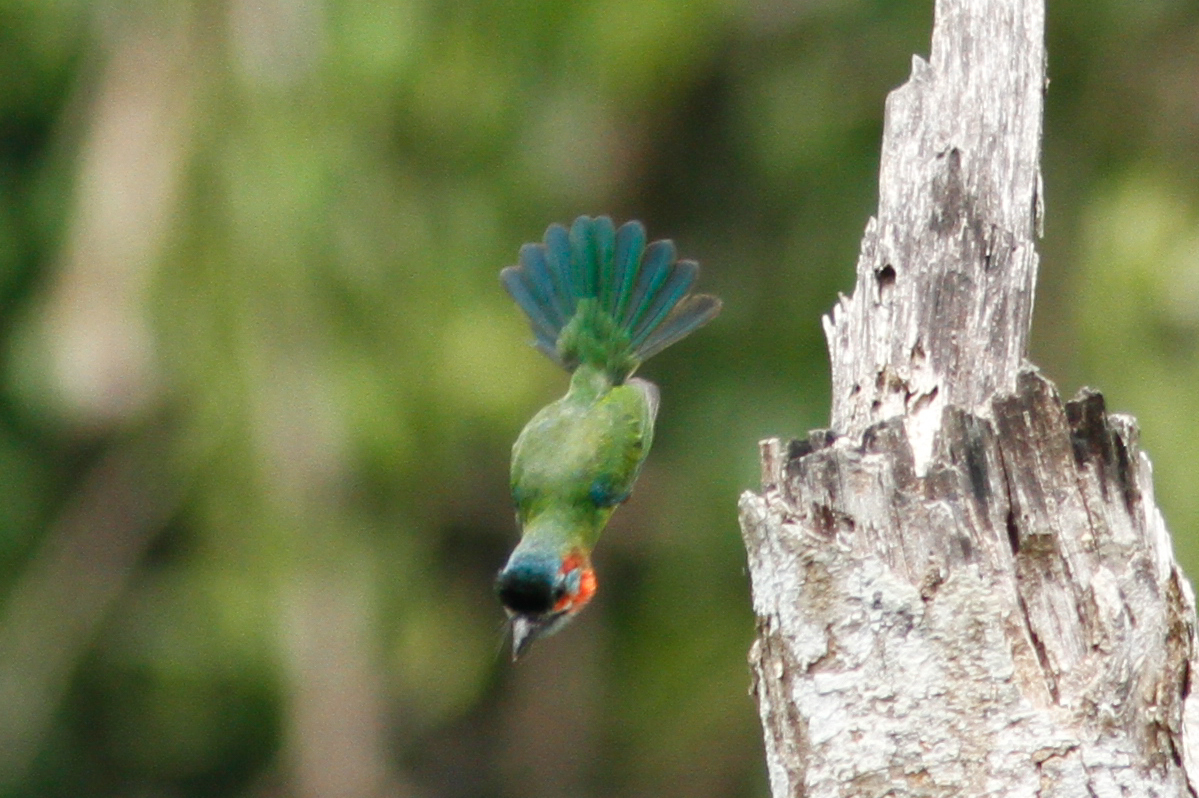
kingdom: Animalia
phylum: Chordata
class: Aves
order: Piciformes
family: Megalaimidae
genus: Psilopogon
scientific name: Psilopogon duvaucelii
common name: Blue-eared barbet
